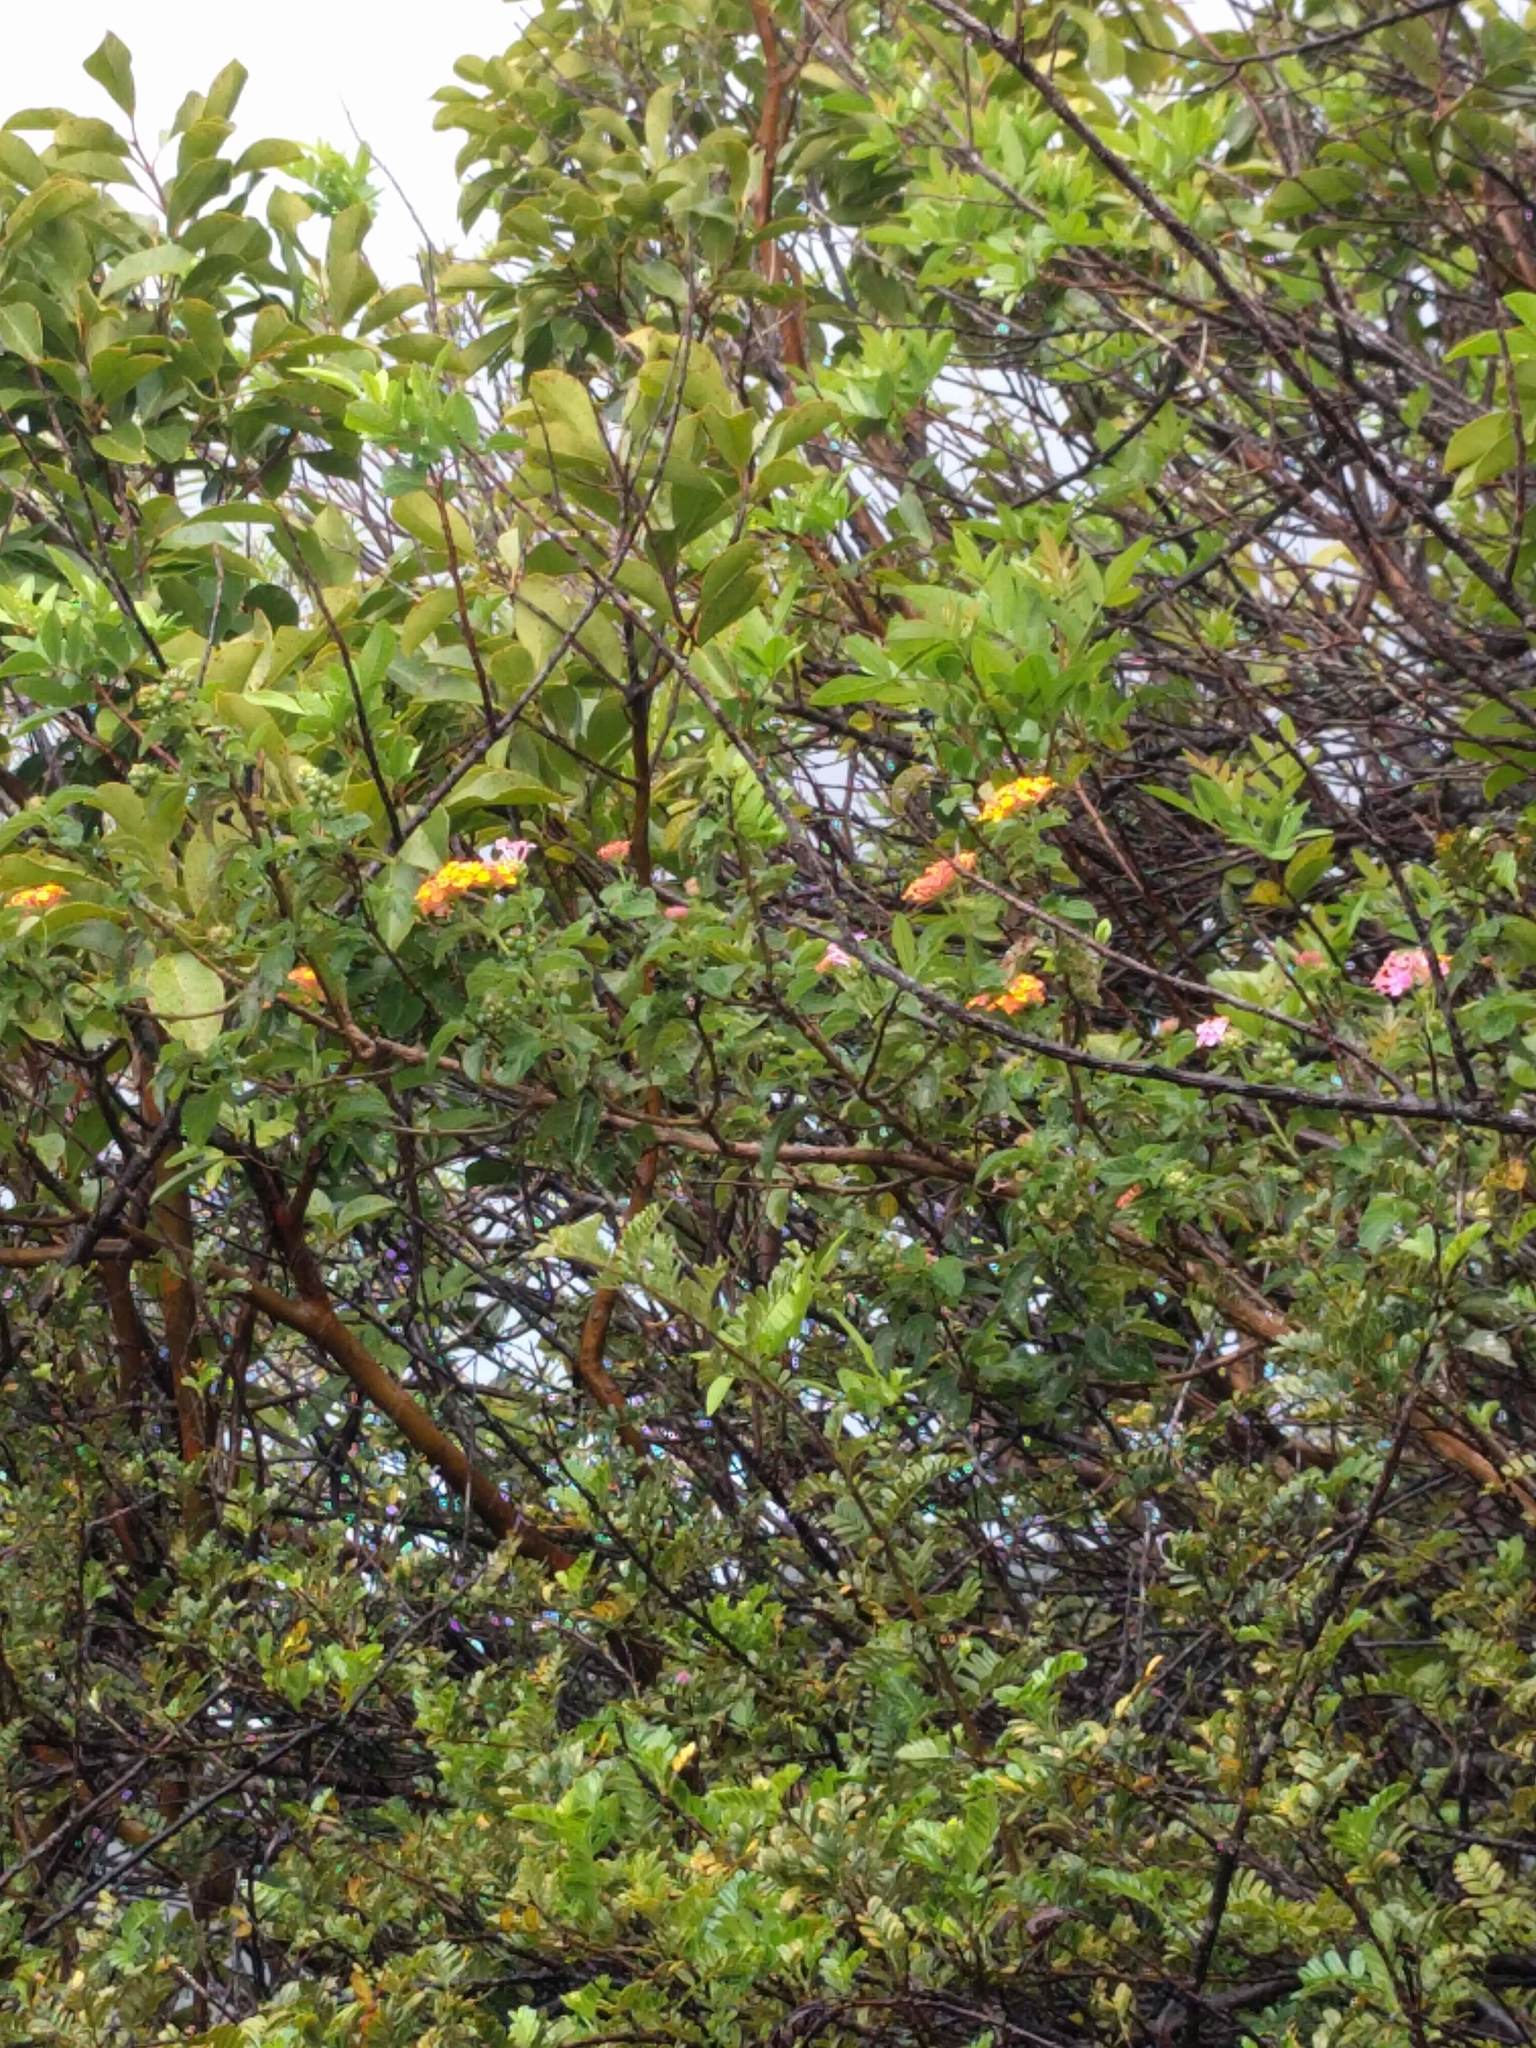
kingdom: Plantae
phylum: Tracheophyta
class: Magnoliopsida
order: Lamiales
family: Verbenaceae
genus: Lantana
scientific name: Lantana camara
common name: Lantana
